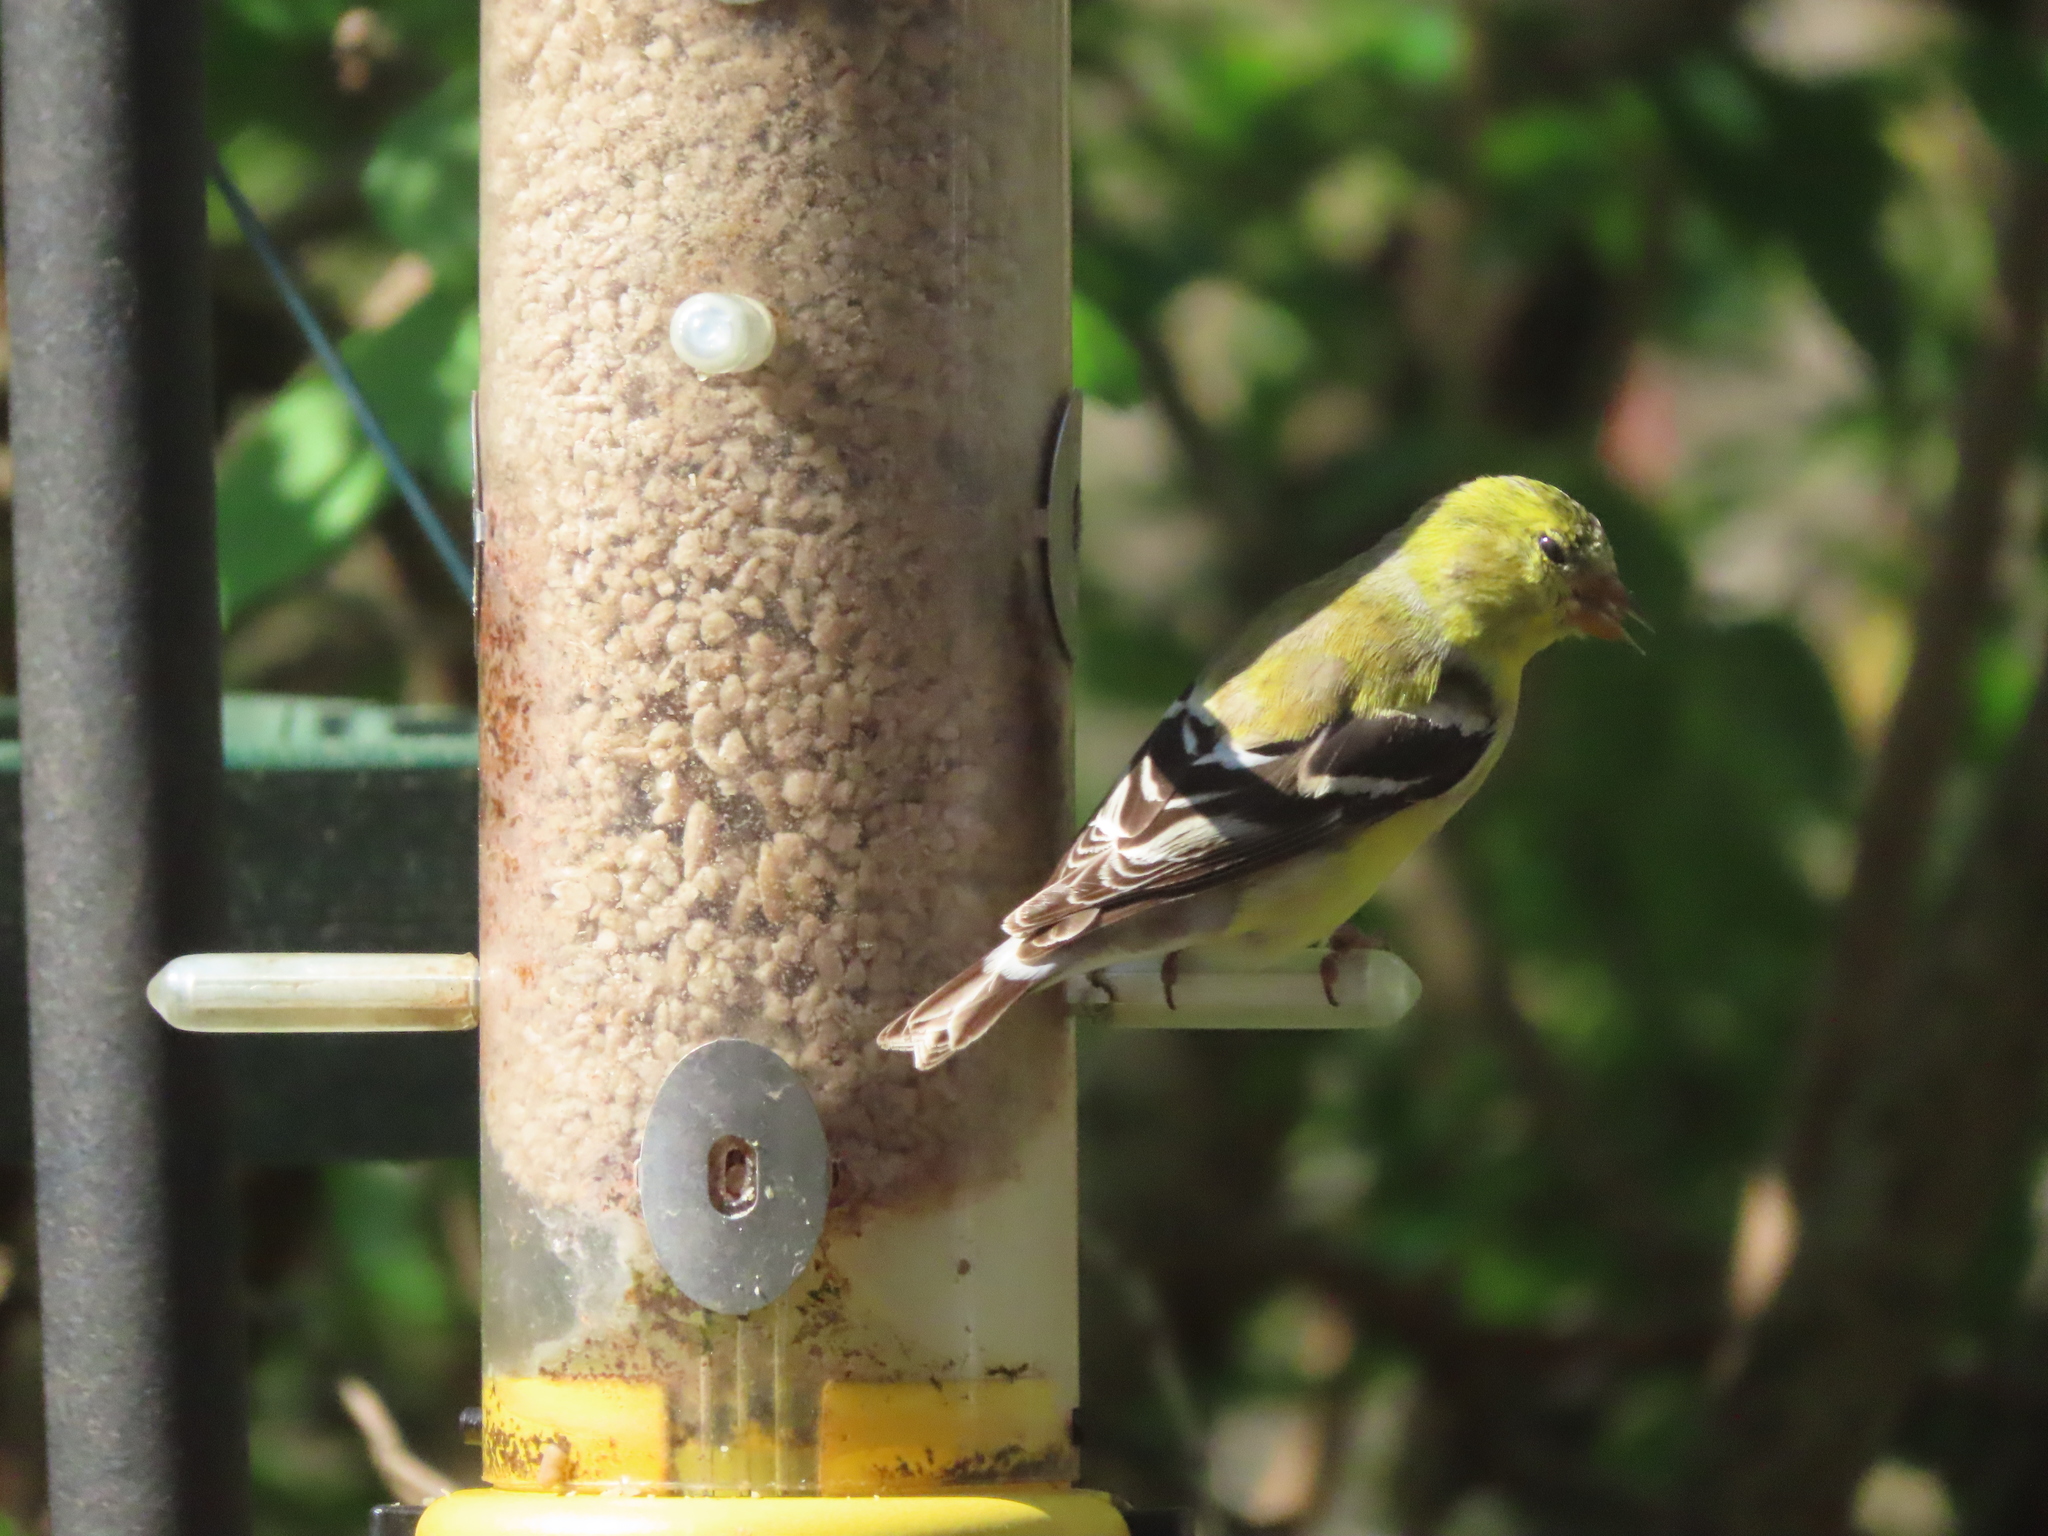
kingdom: Animalia
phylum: Chordata
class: Aves
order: Passeriformes
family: Fringillidae
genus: Spinus
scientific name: Spinus tristis
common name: American goldfinch
